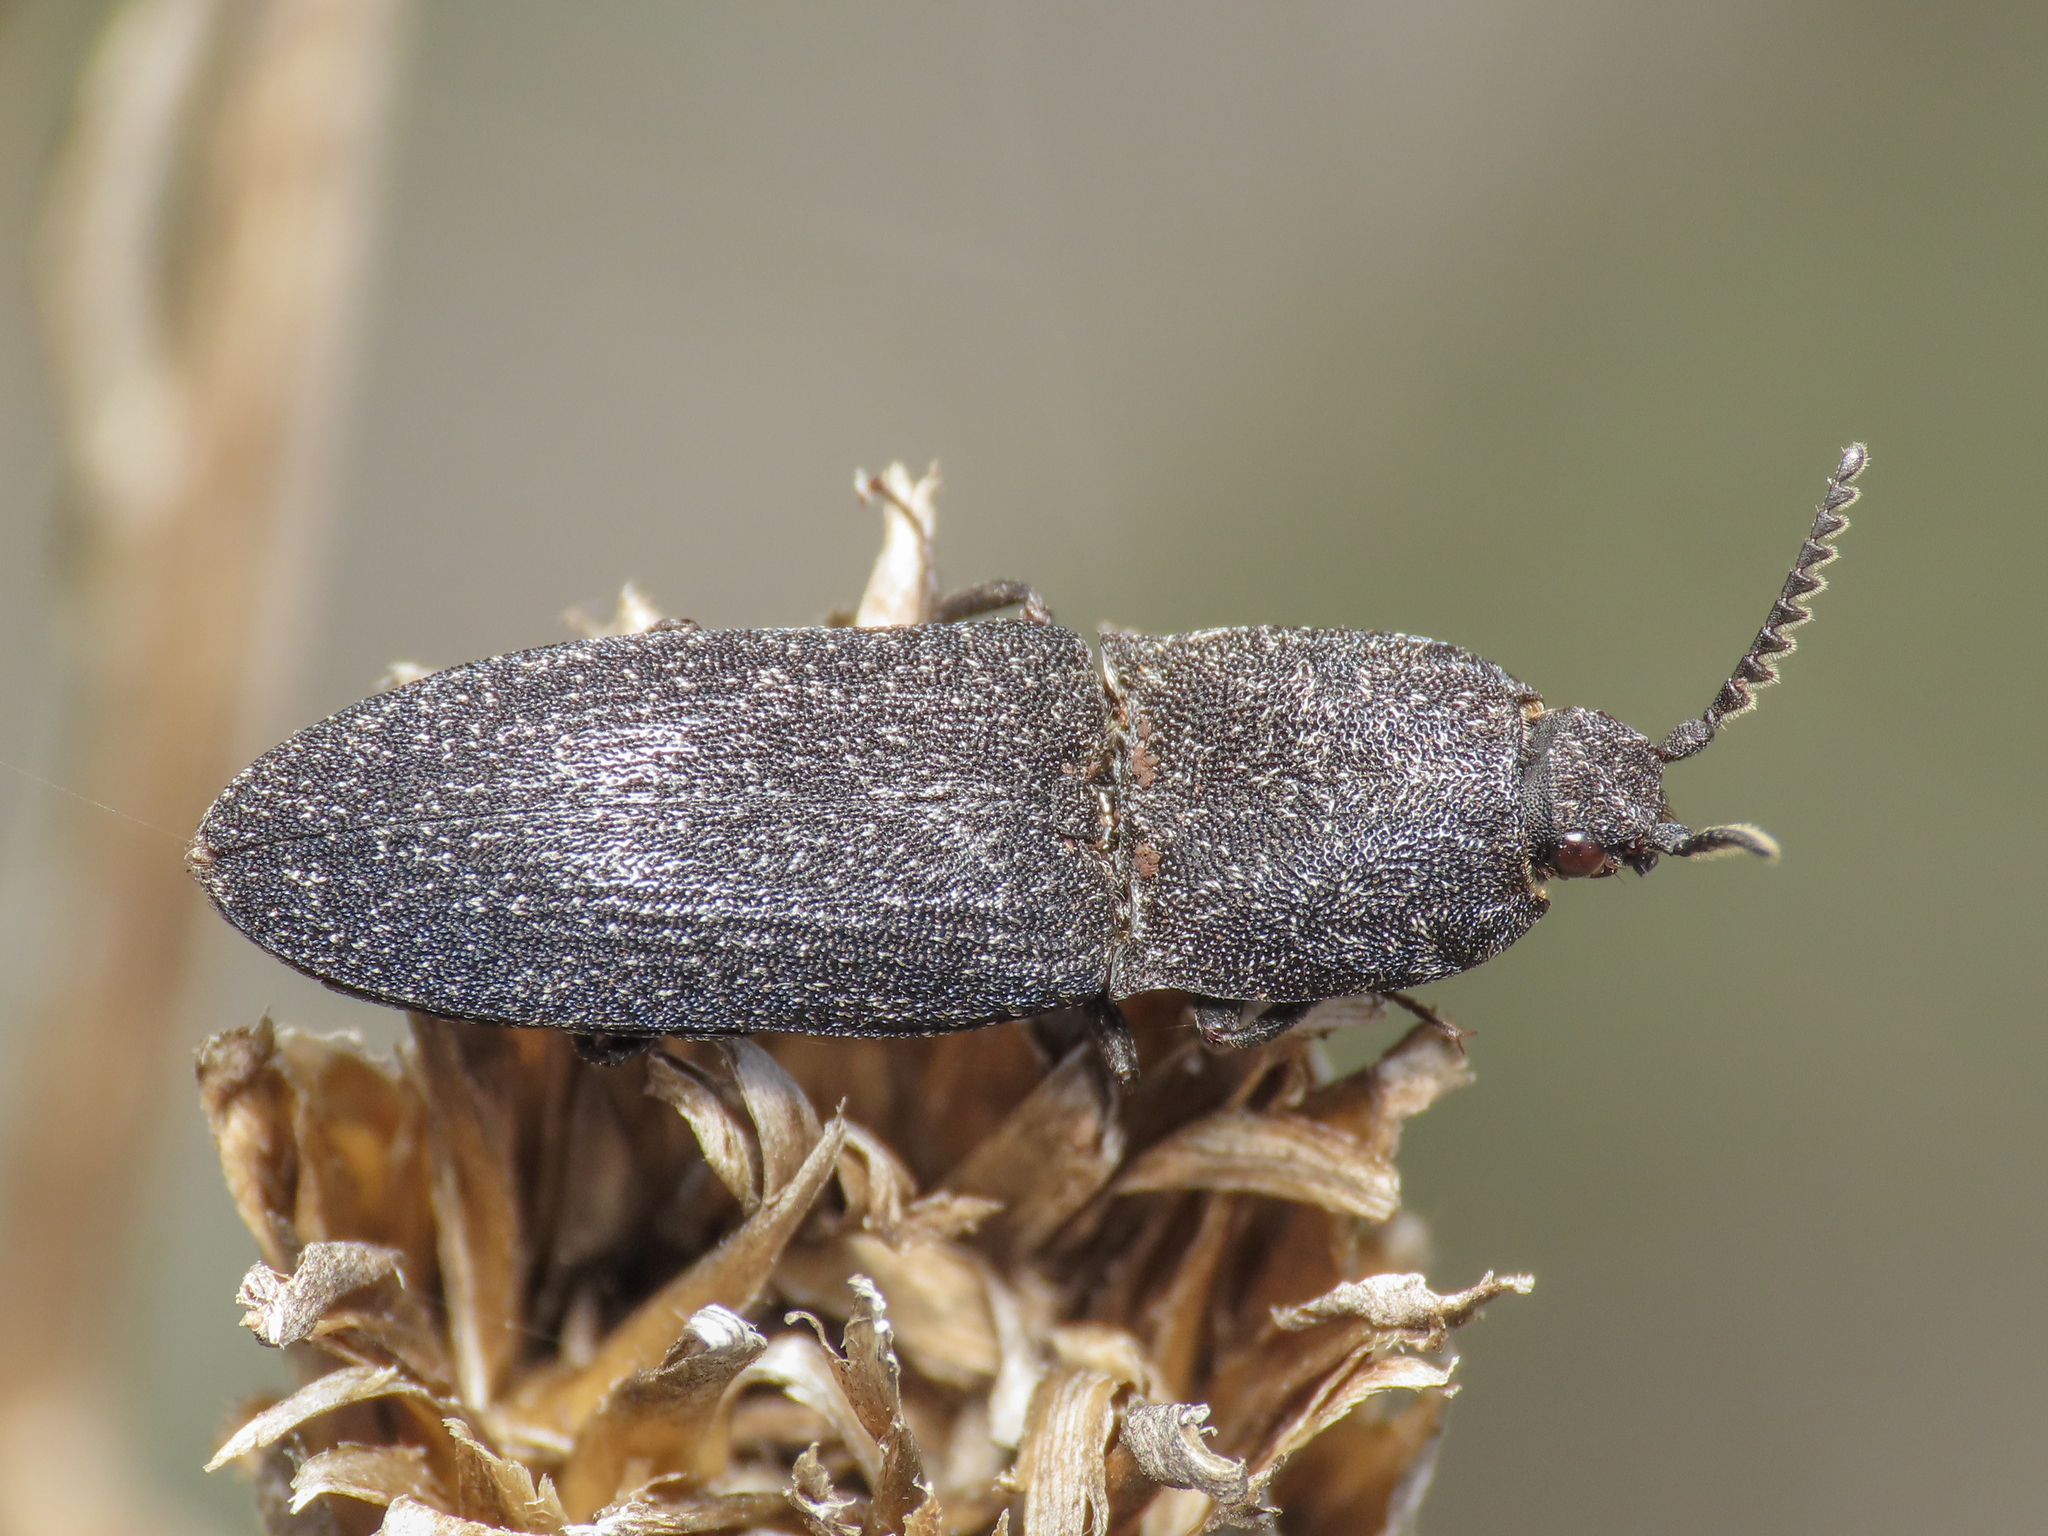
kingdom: Animalia
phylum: Arthropoda
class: Insecta
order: Coleoptera
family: Elateridae
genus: Lacon
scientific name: Lacon punctatus
